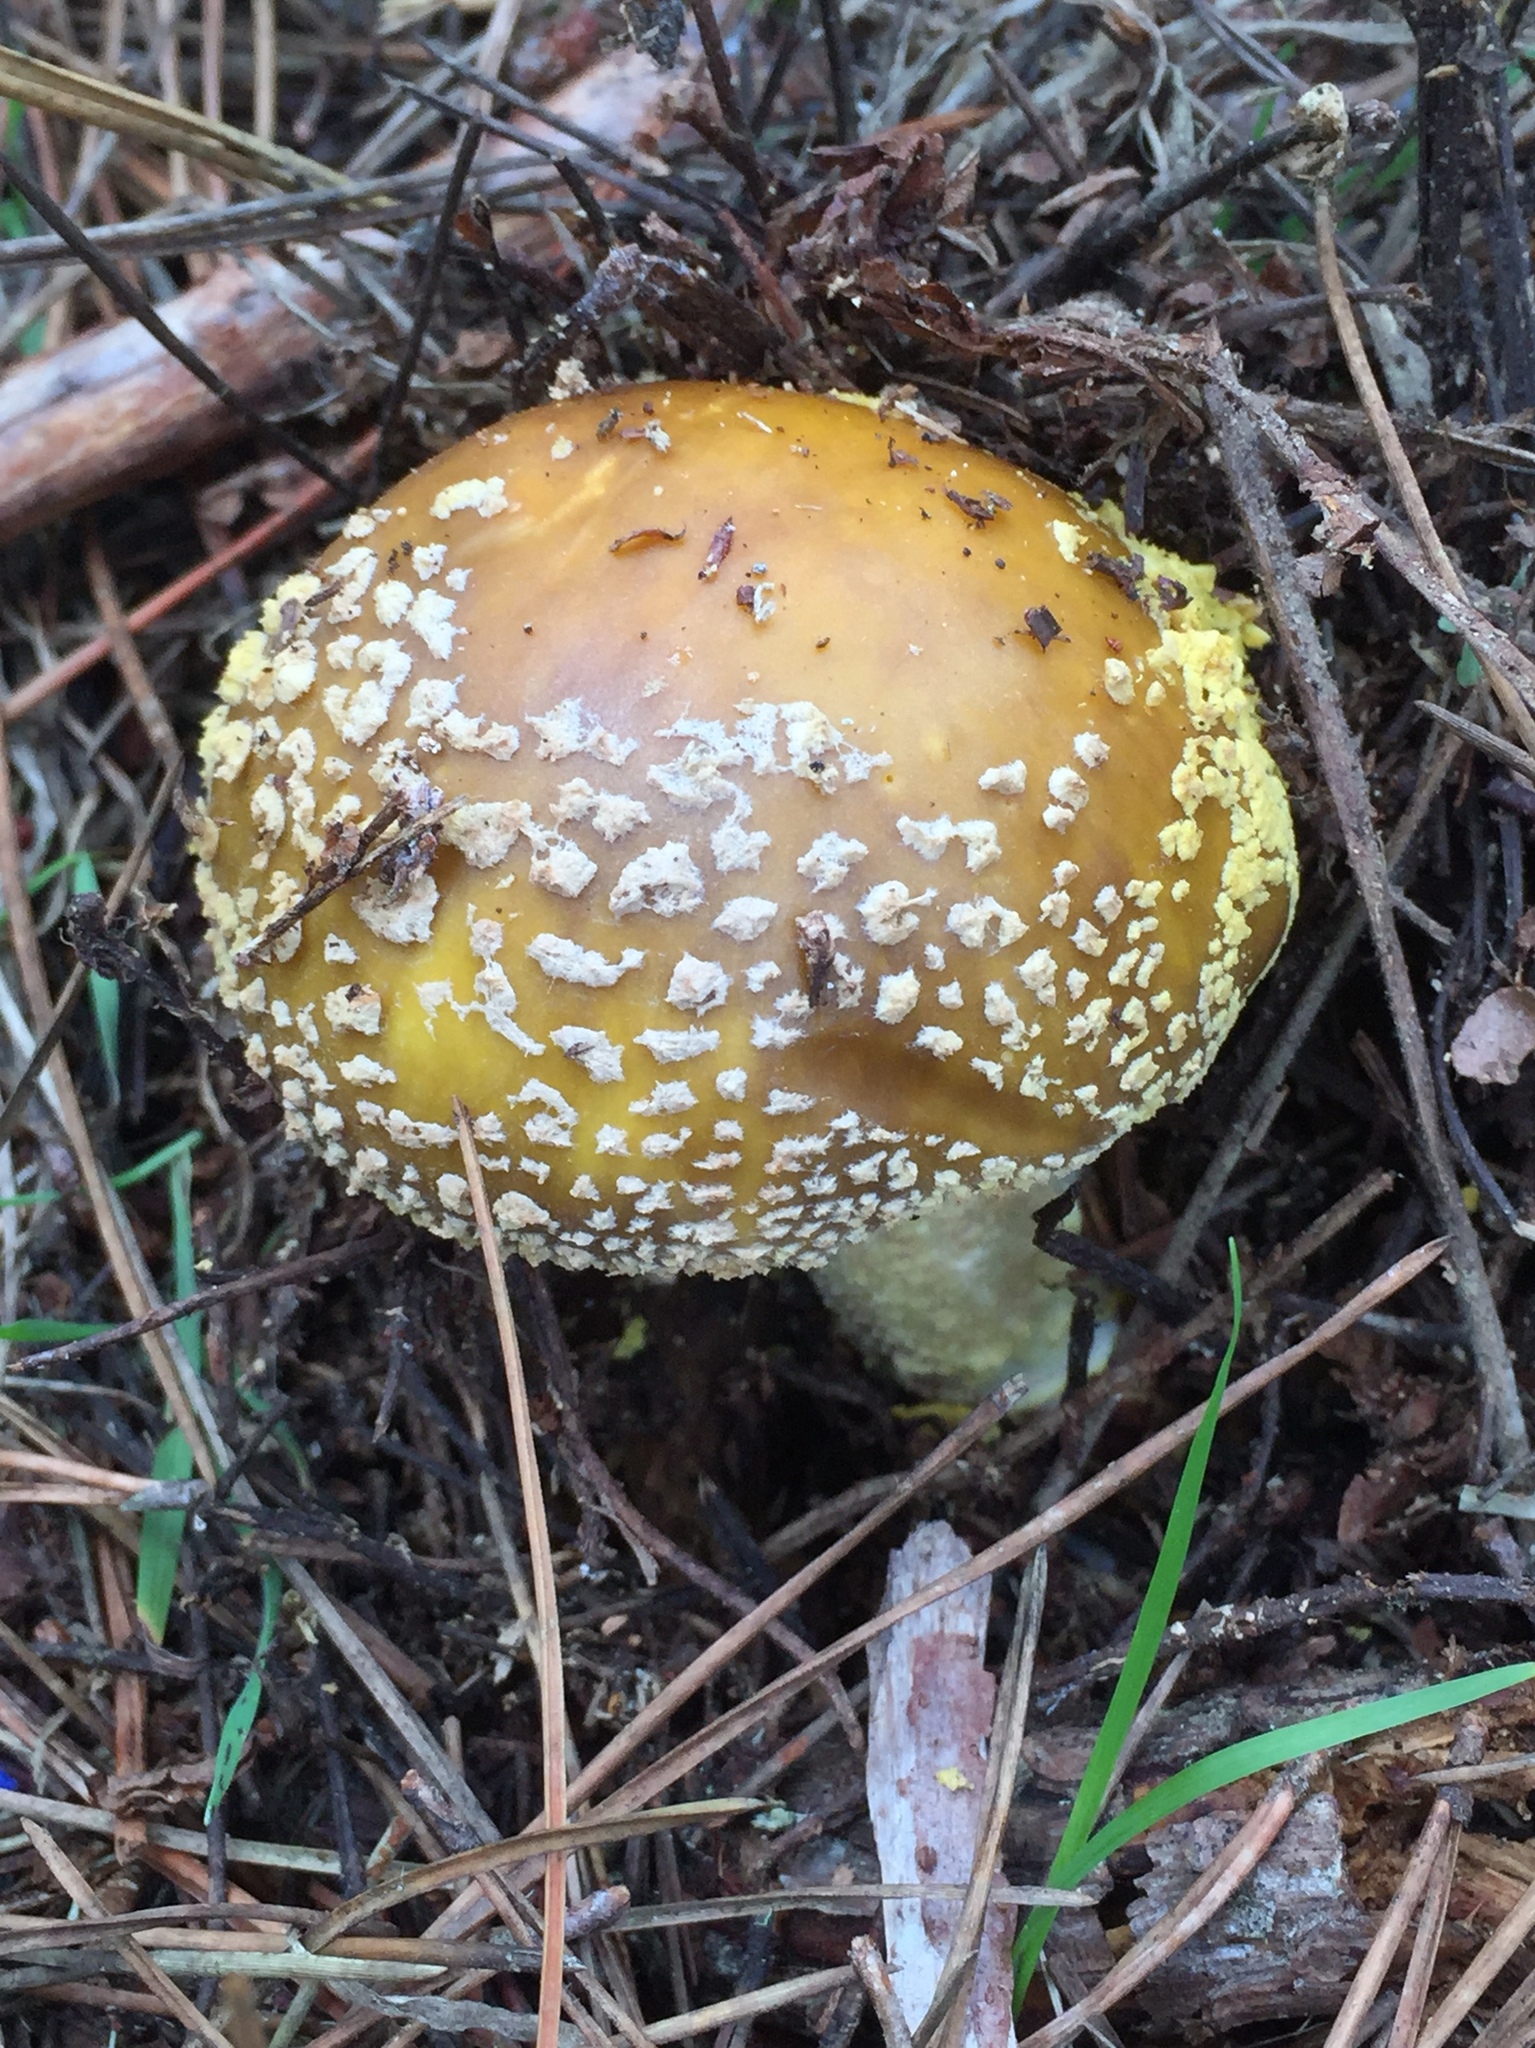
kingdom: Fungi
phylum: Basidiomycota
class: Agaricomycetes
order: Agaricales
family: Amanitaceae
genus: Amanita
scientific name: Amanita augusta
